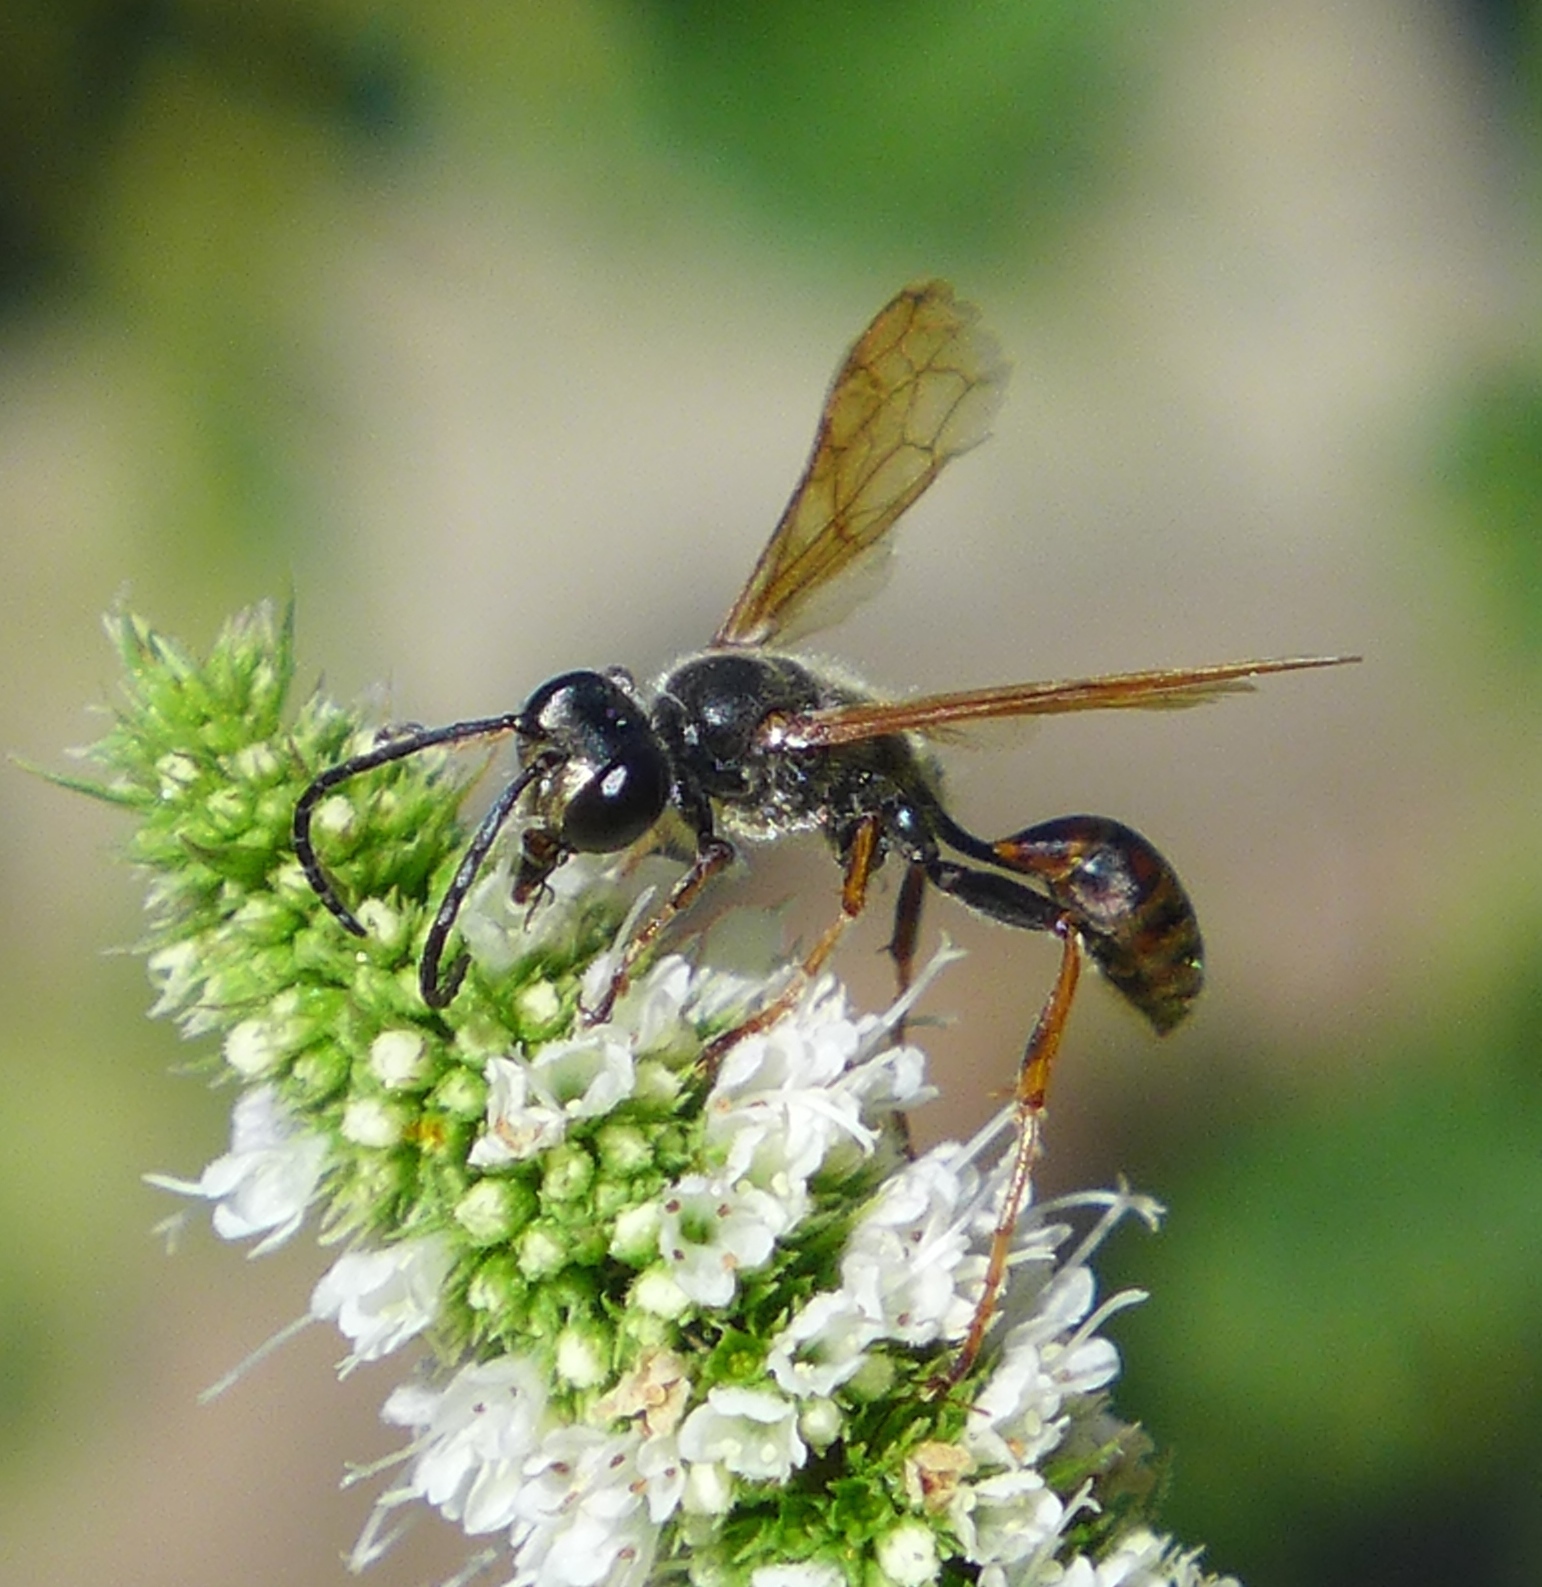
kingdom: Animalia
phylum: Arthropoda
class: Insecta
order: Hymenoptera
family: Sphecidae
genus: Isodontia
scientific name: Isodontia elegans
